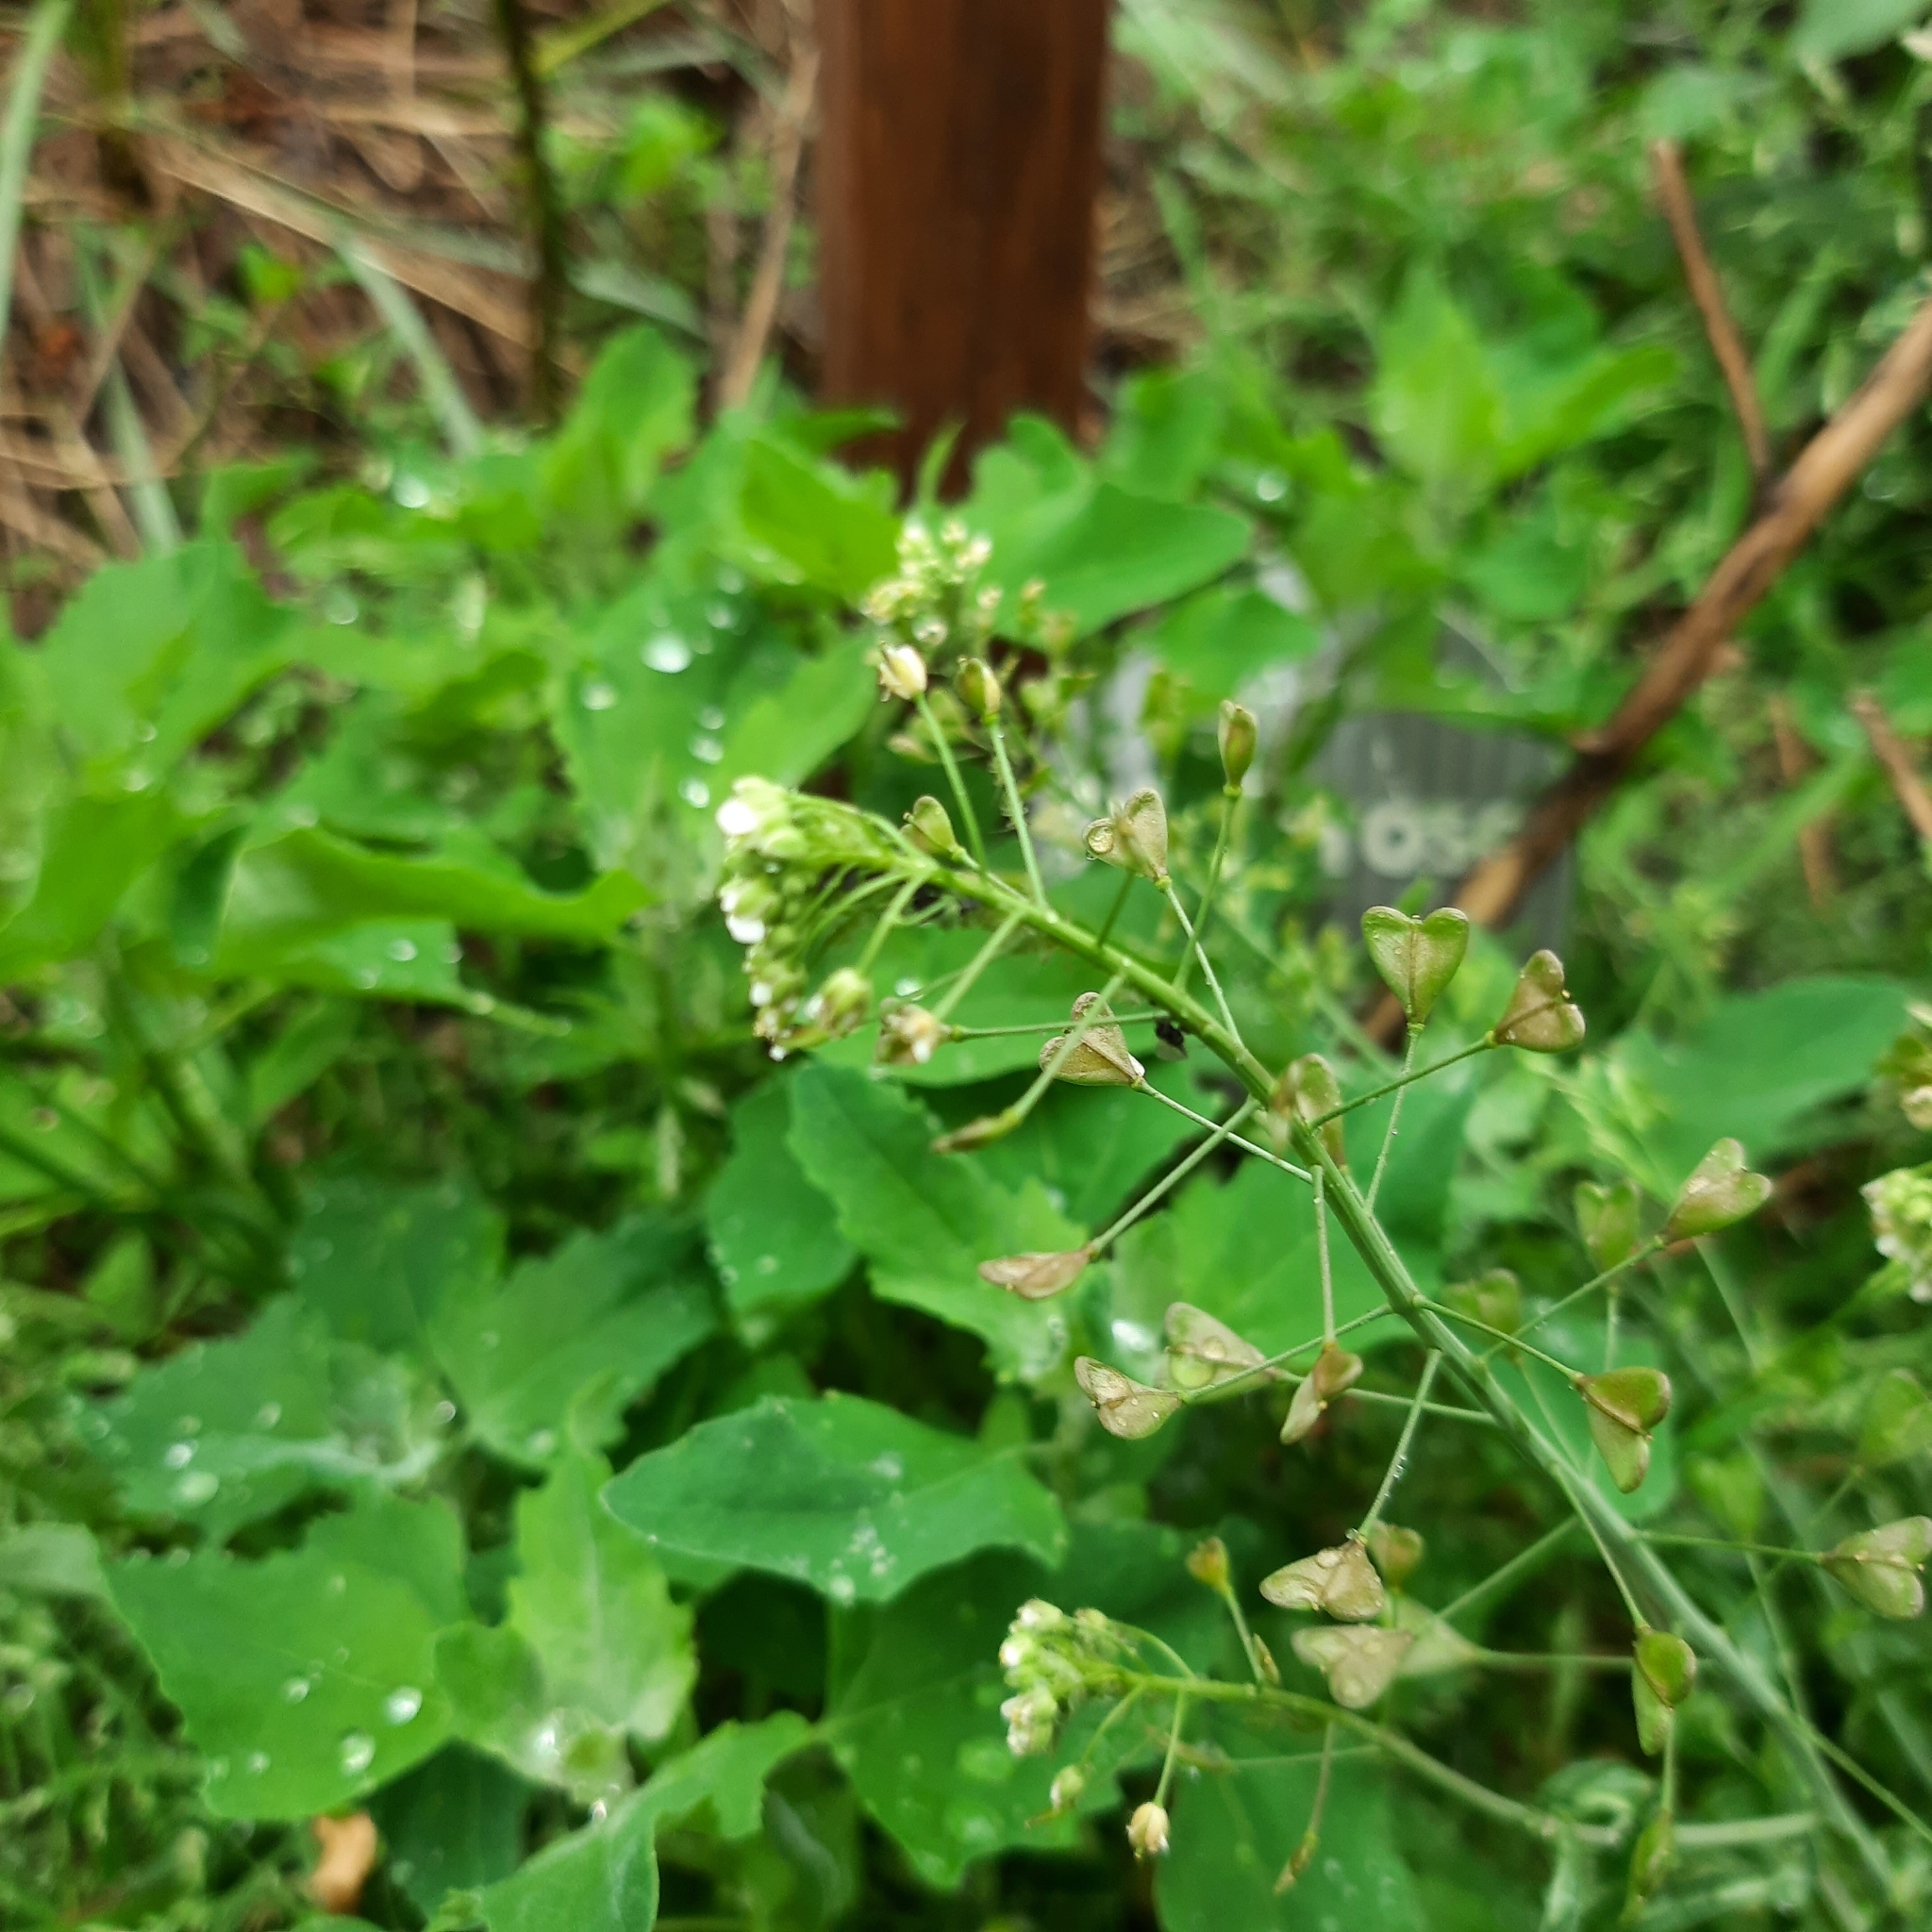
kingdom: Plantae
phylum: Tracheophyta
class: Magnoliopsida
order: Brassicales
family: Brassicaceae
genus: Capsella
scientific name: Capsella bursa-pastoris
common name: Shepherd's purse
